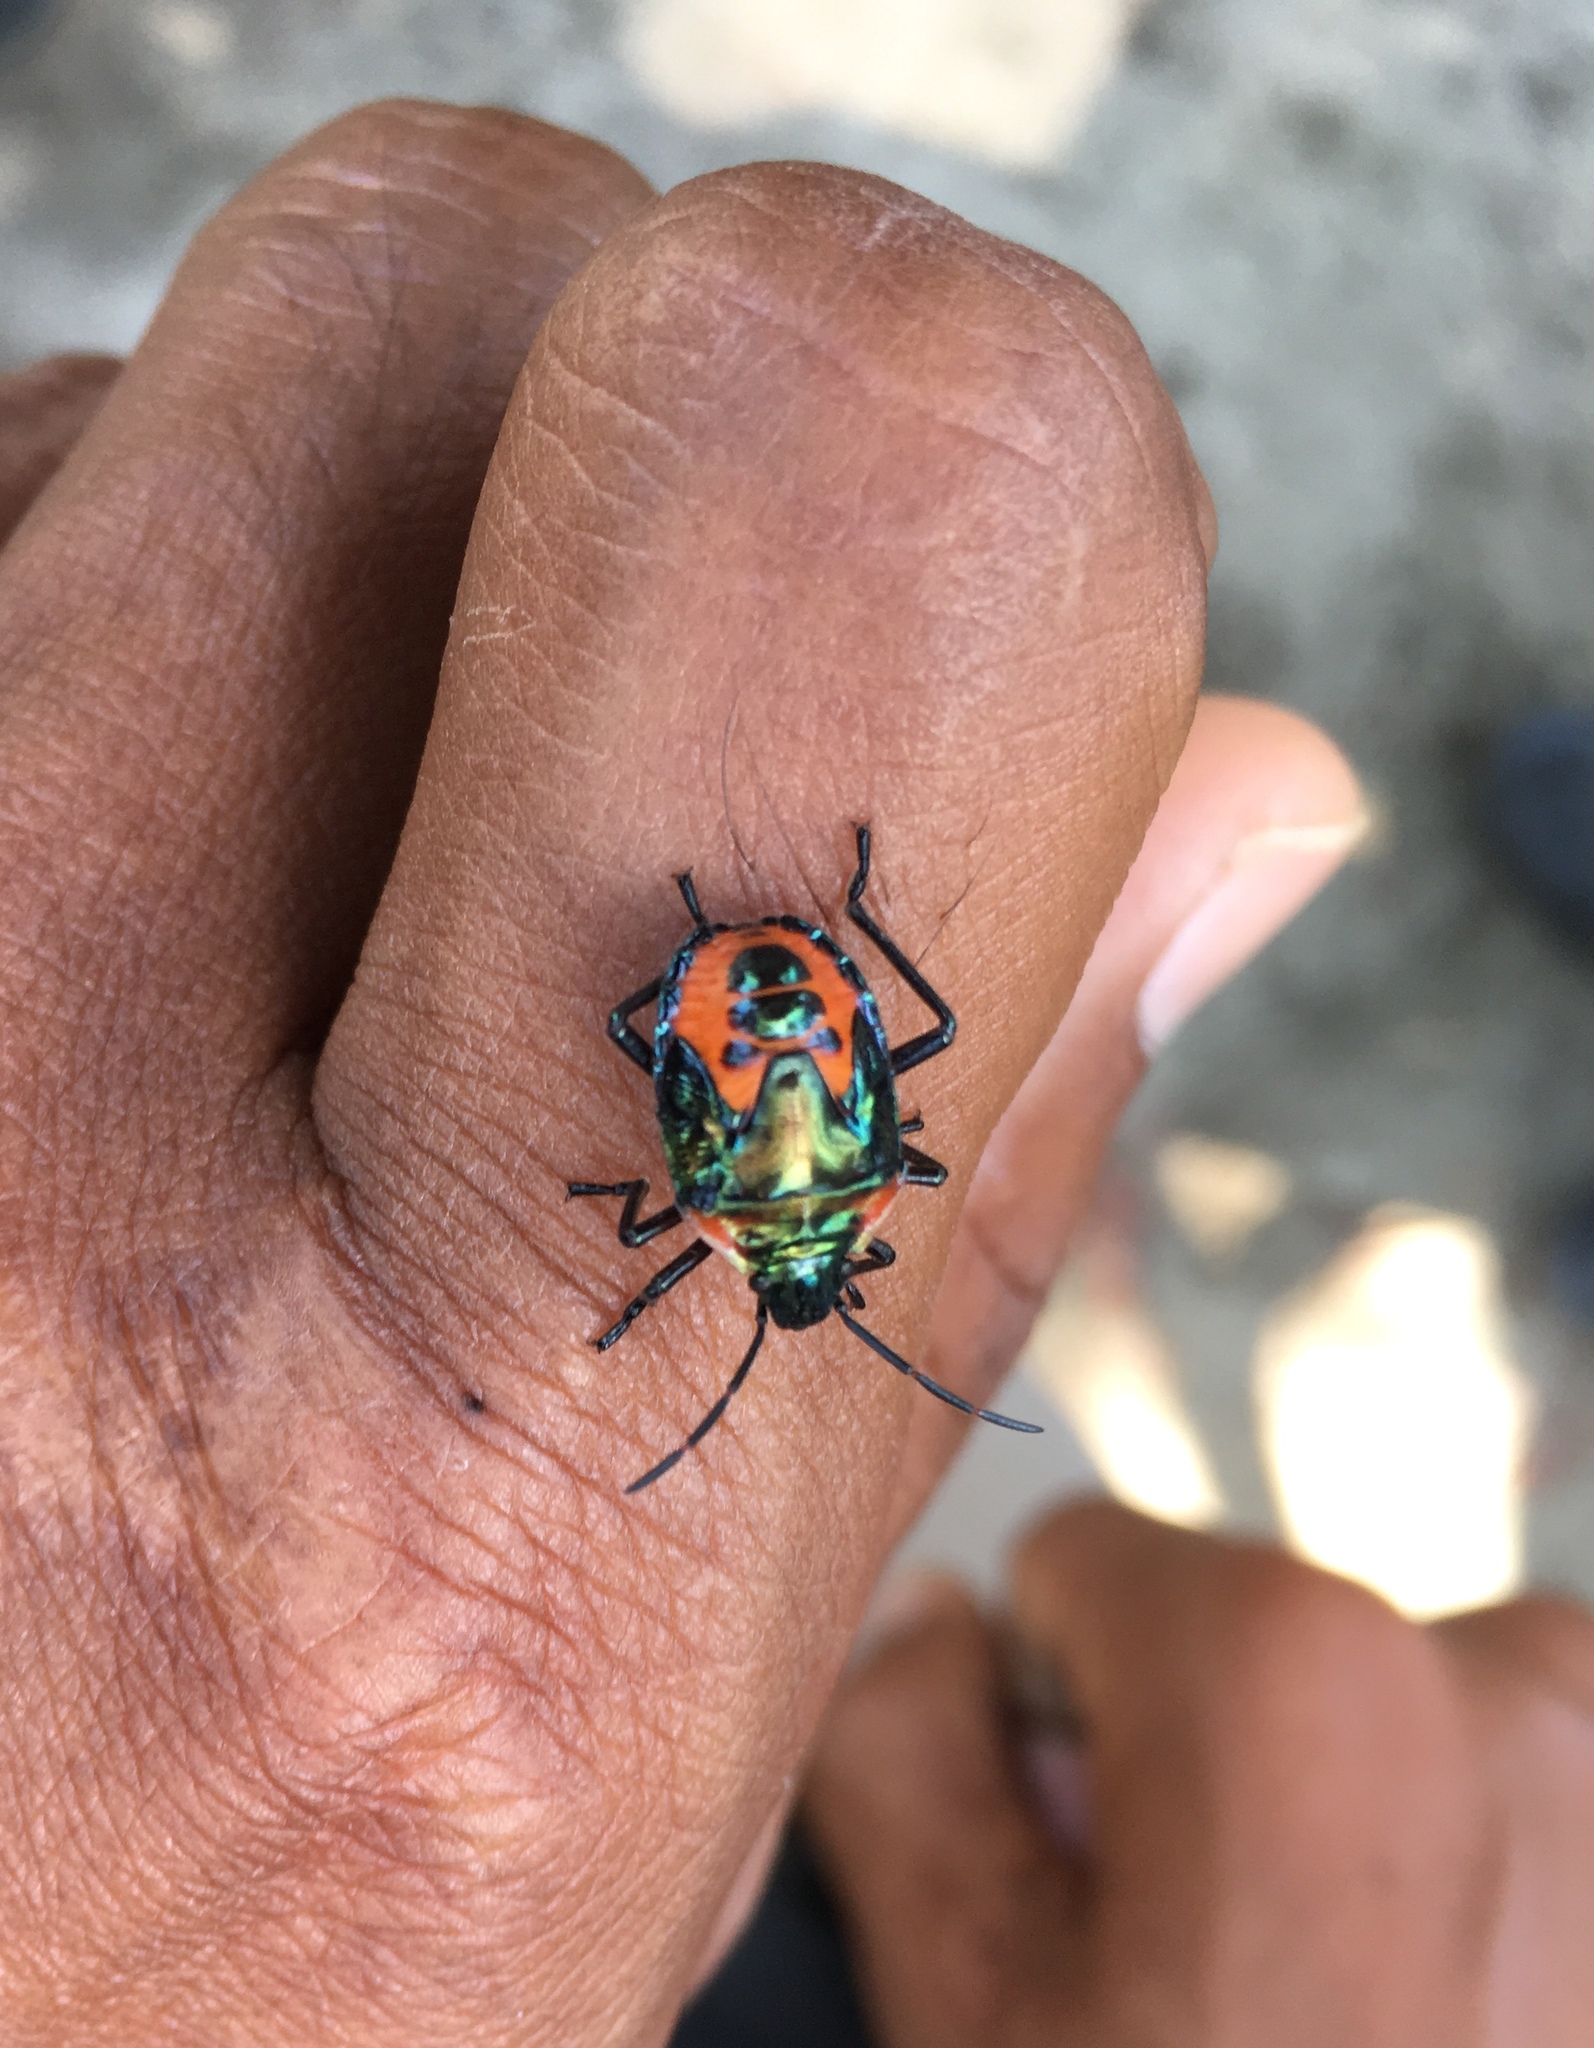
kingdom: Animalia
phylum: Arthropoda
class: Insecta
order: Hemiptera
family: Scutelleridae
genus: Cantao
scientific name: Cantao ocellatus
